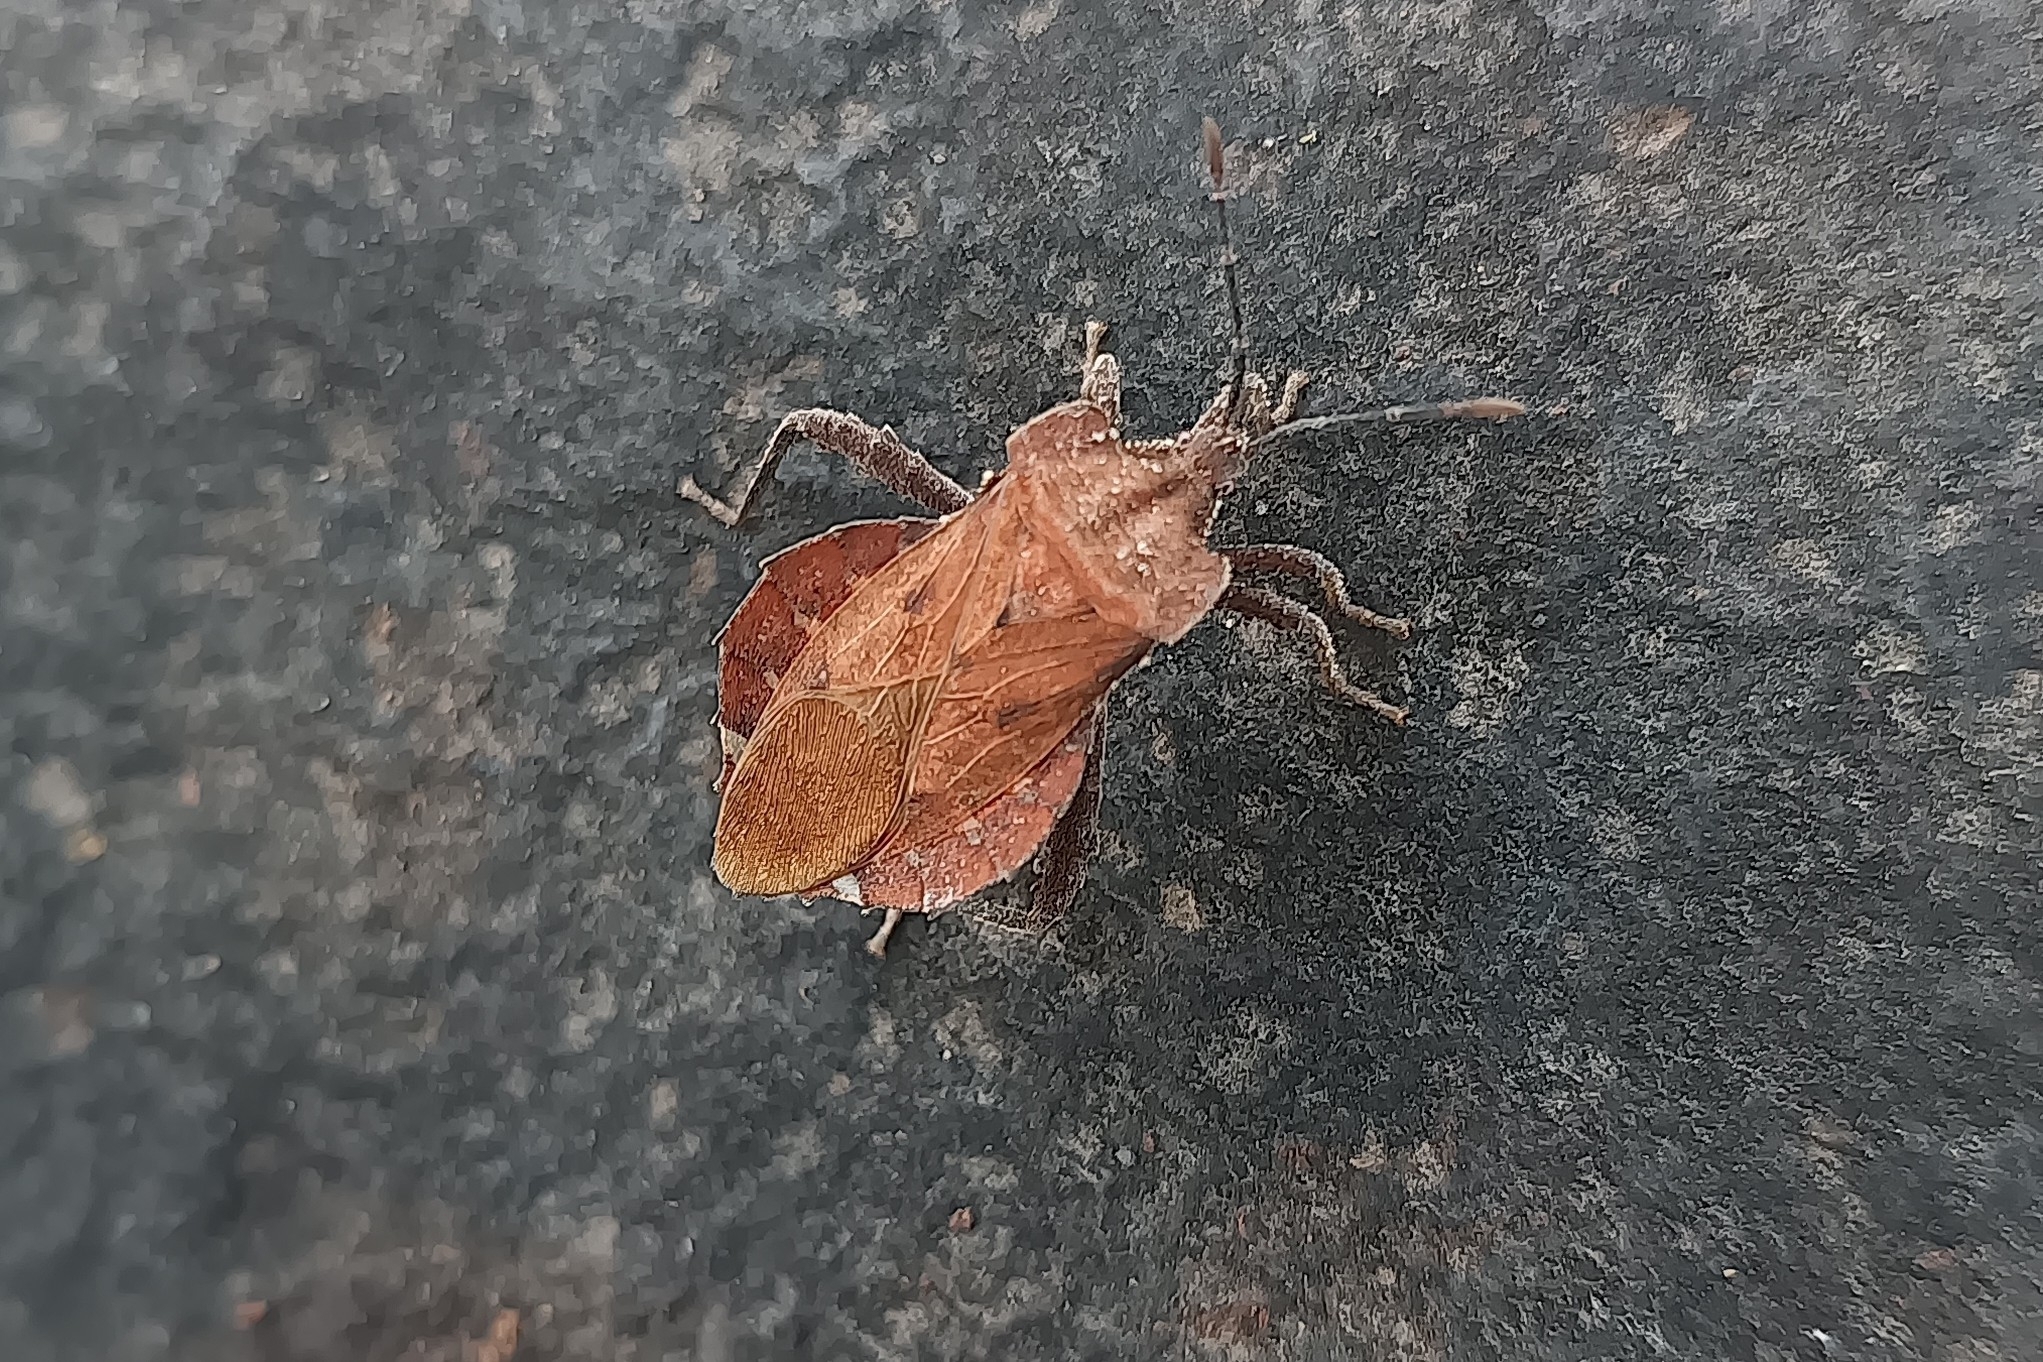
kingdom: Animalia
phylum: Arthropoda
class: Insecta
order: Hemiptera
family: Coreidae
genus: Piezogaster
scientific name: Piezogaster auriculatus
